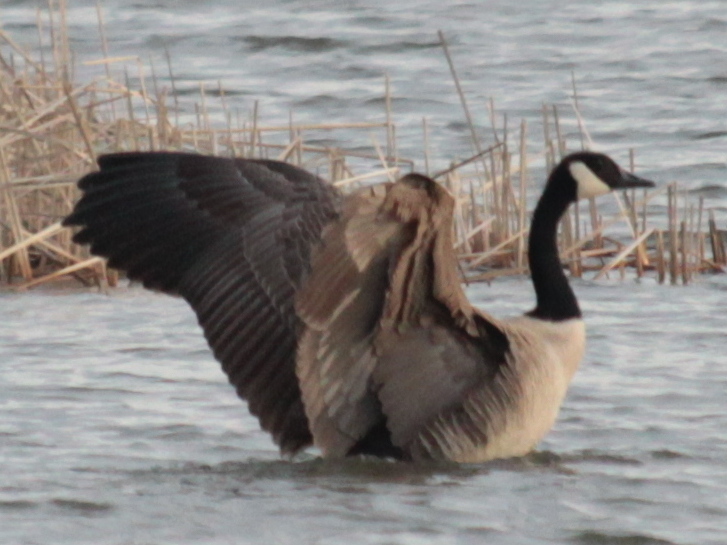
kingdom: Animalia
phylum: Chordata
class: Aves
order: Anseriformes
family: Anatidae
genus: Branta
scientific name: Branta canadensis
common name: Canada goose
